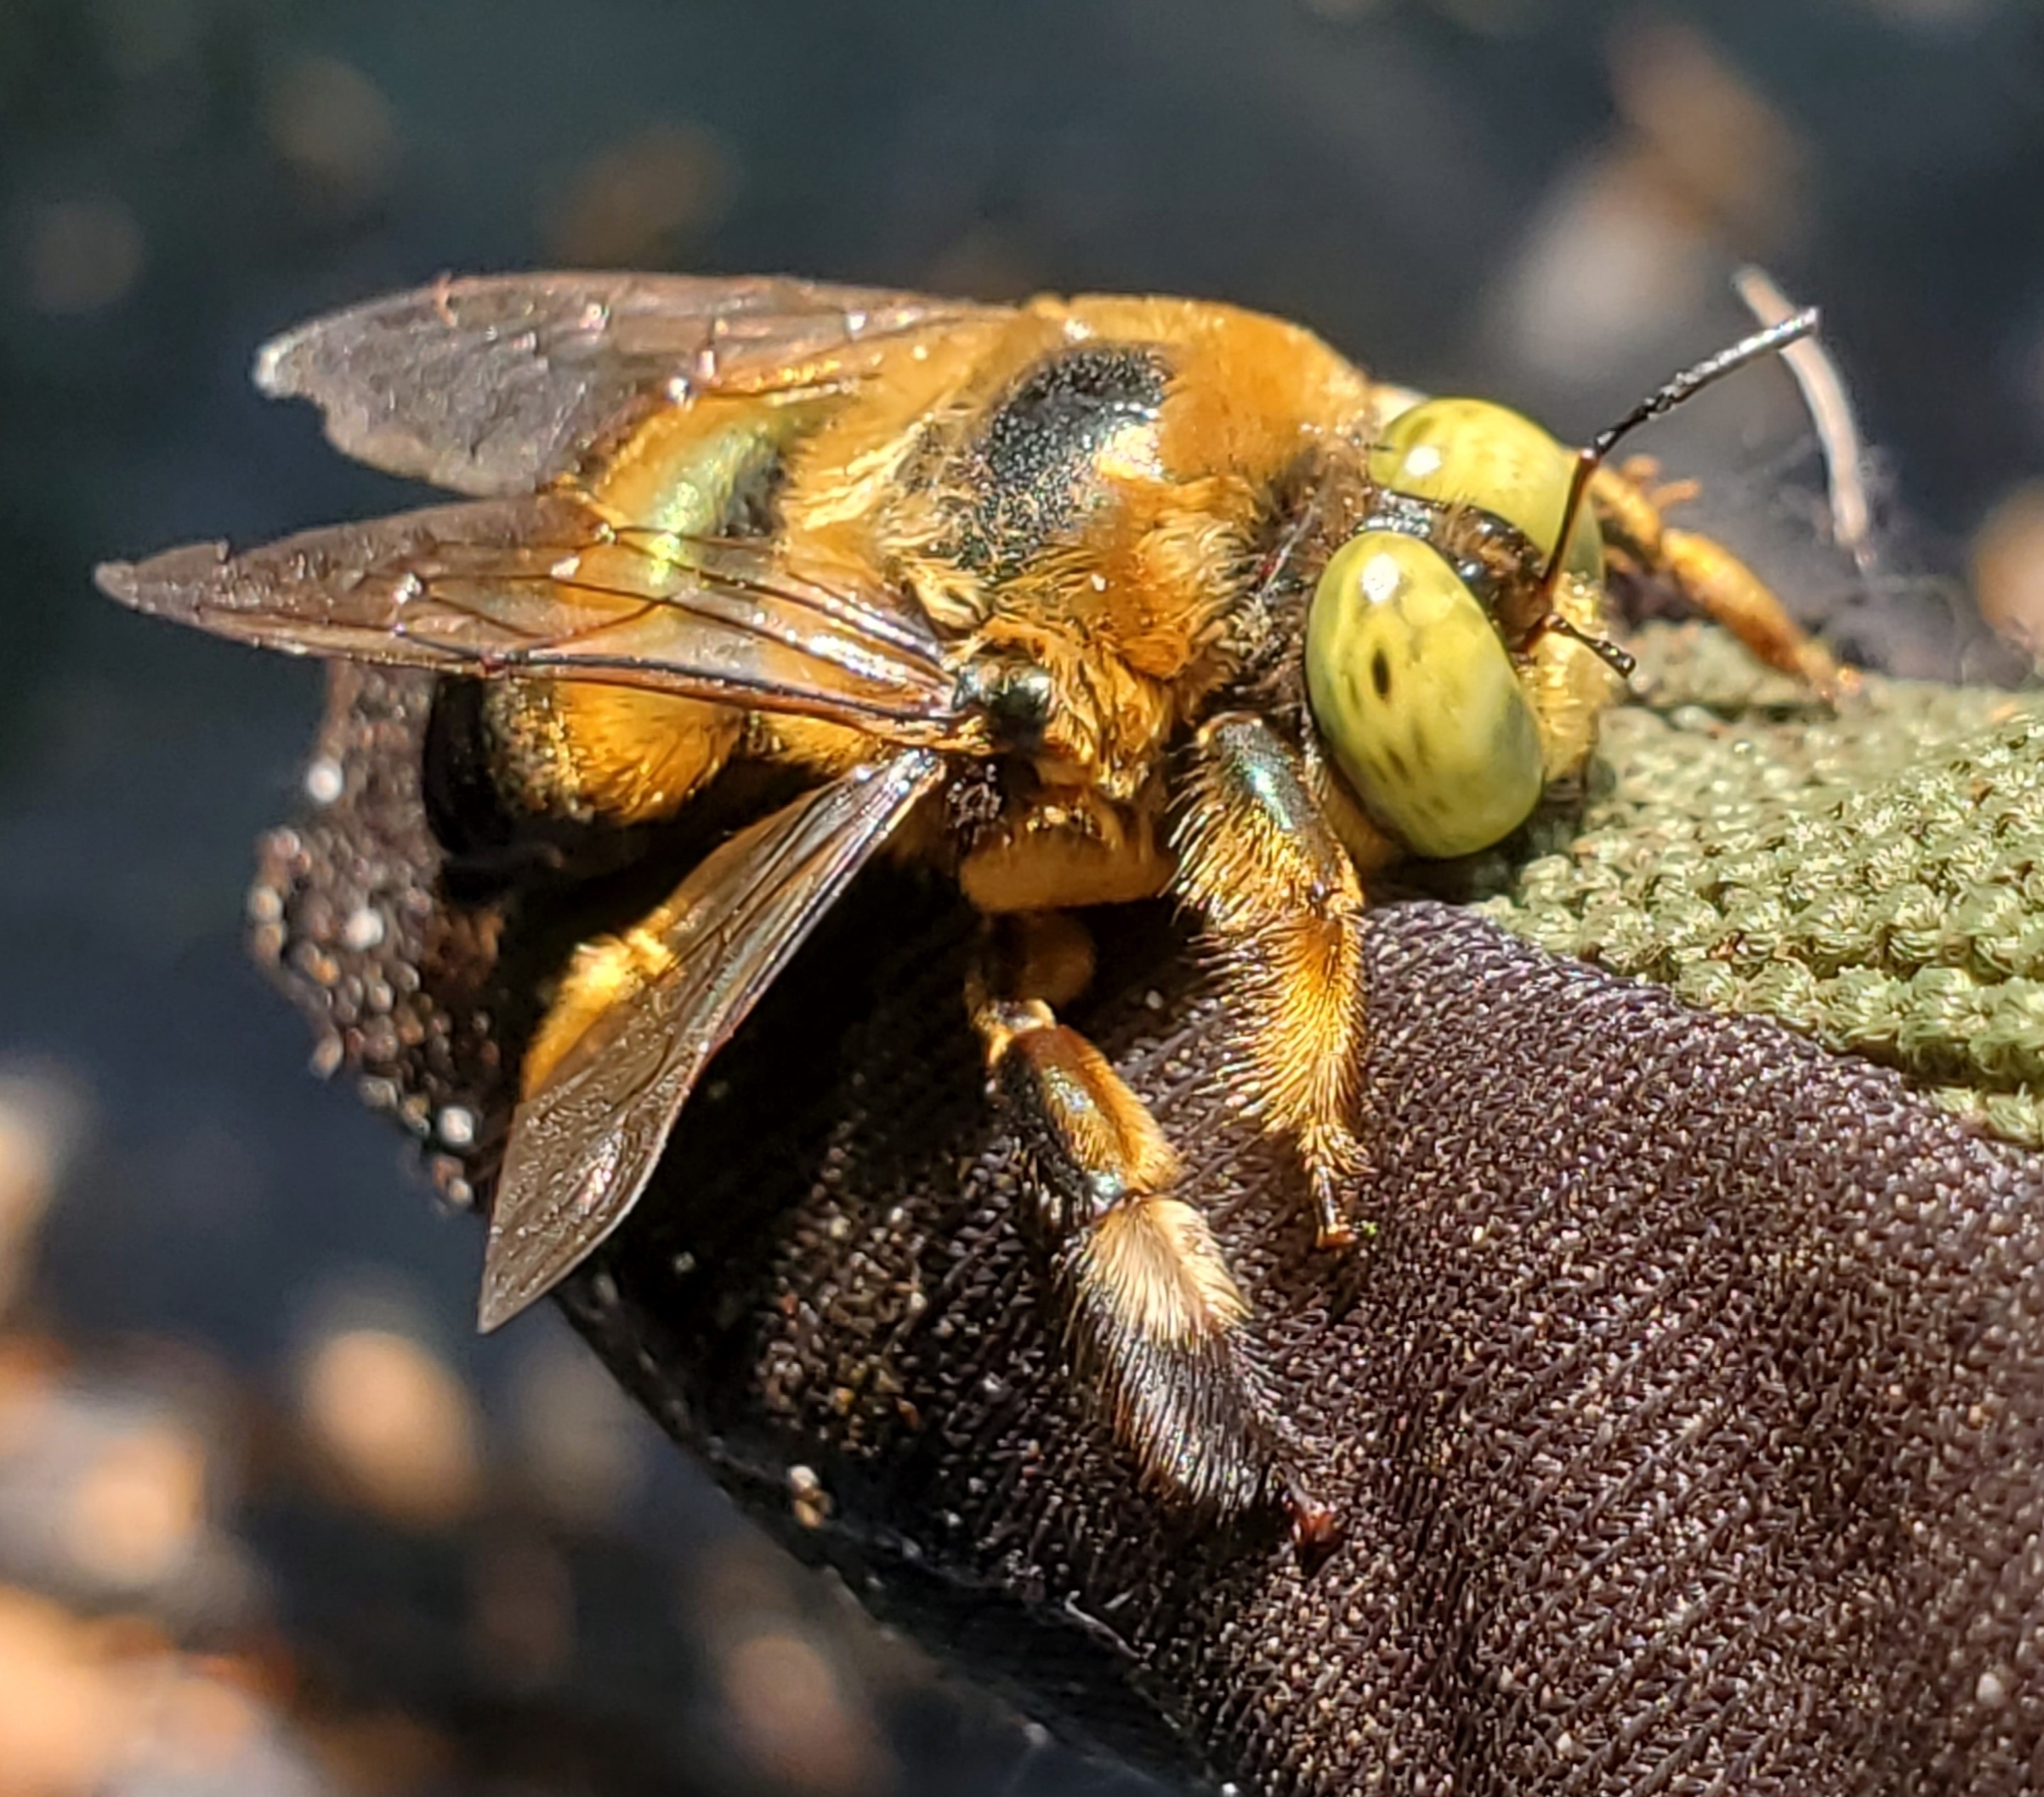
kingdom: Animalia
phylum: Arthropoda
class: Insecta
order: Hymenoptera
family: Apidae
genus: Xylocopa
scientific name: Xylocopa micans
